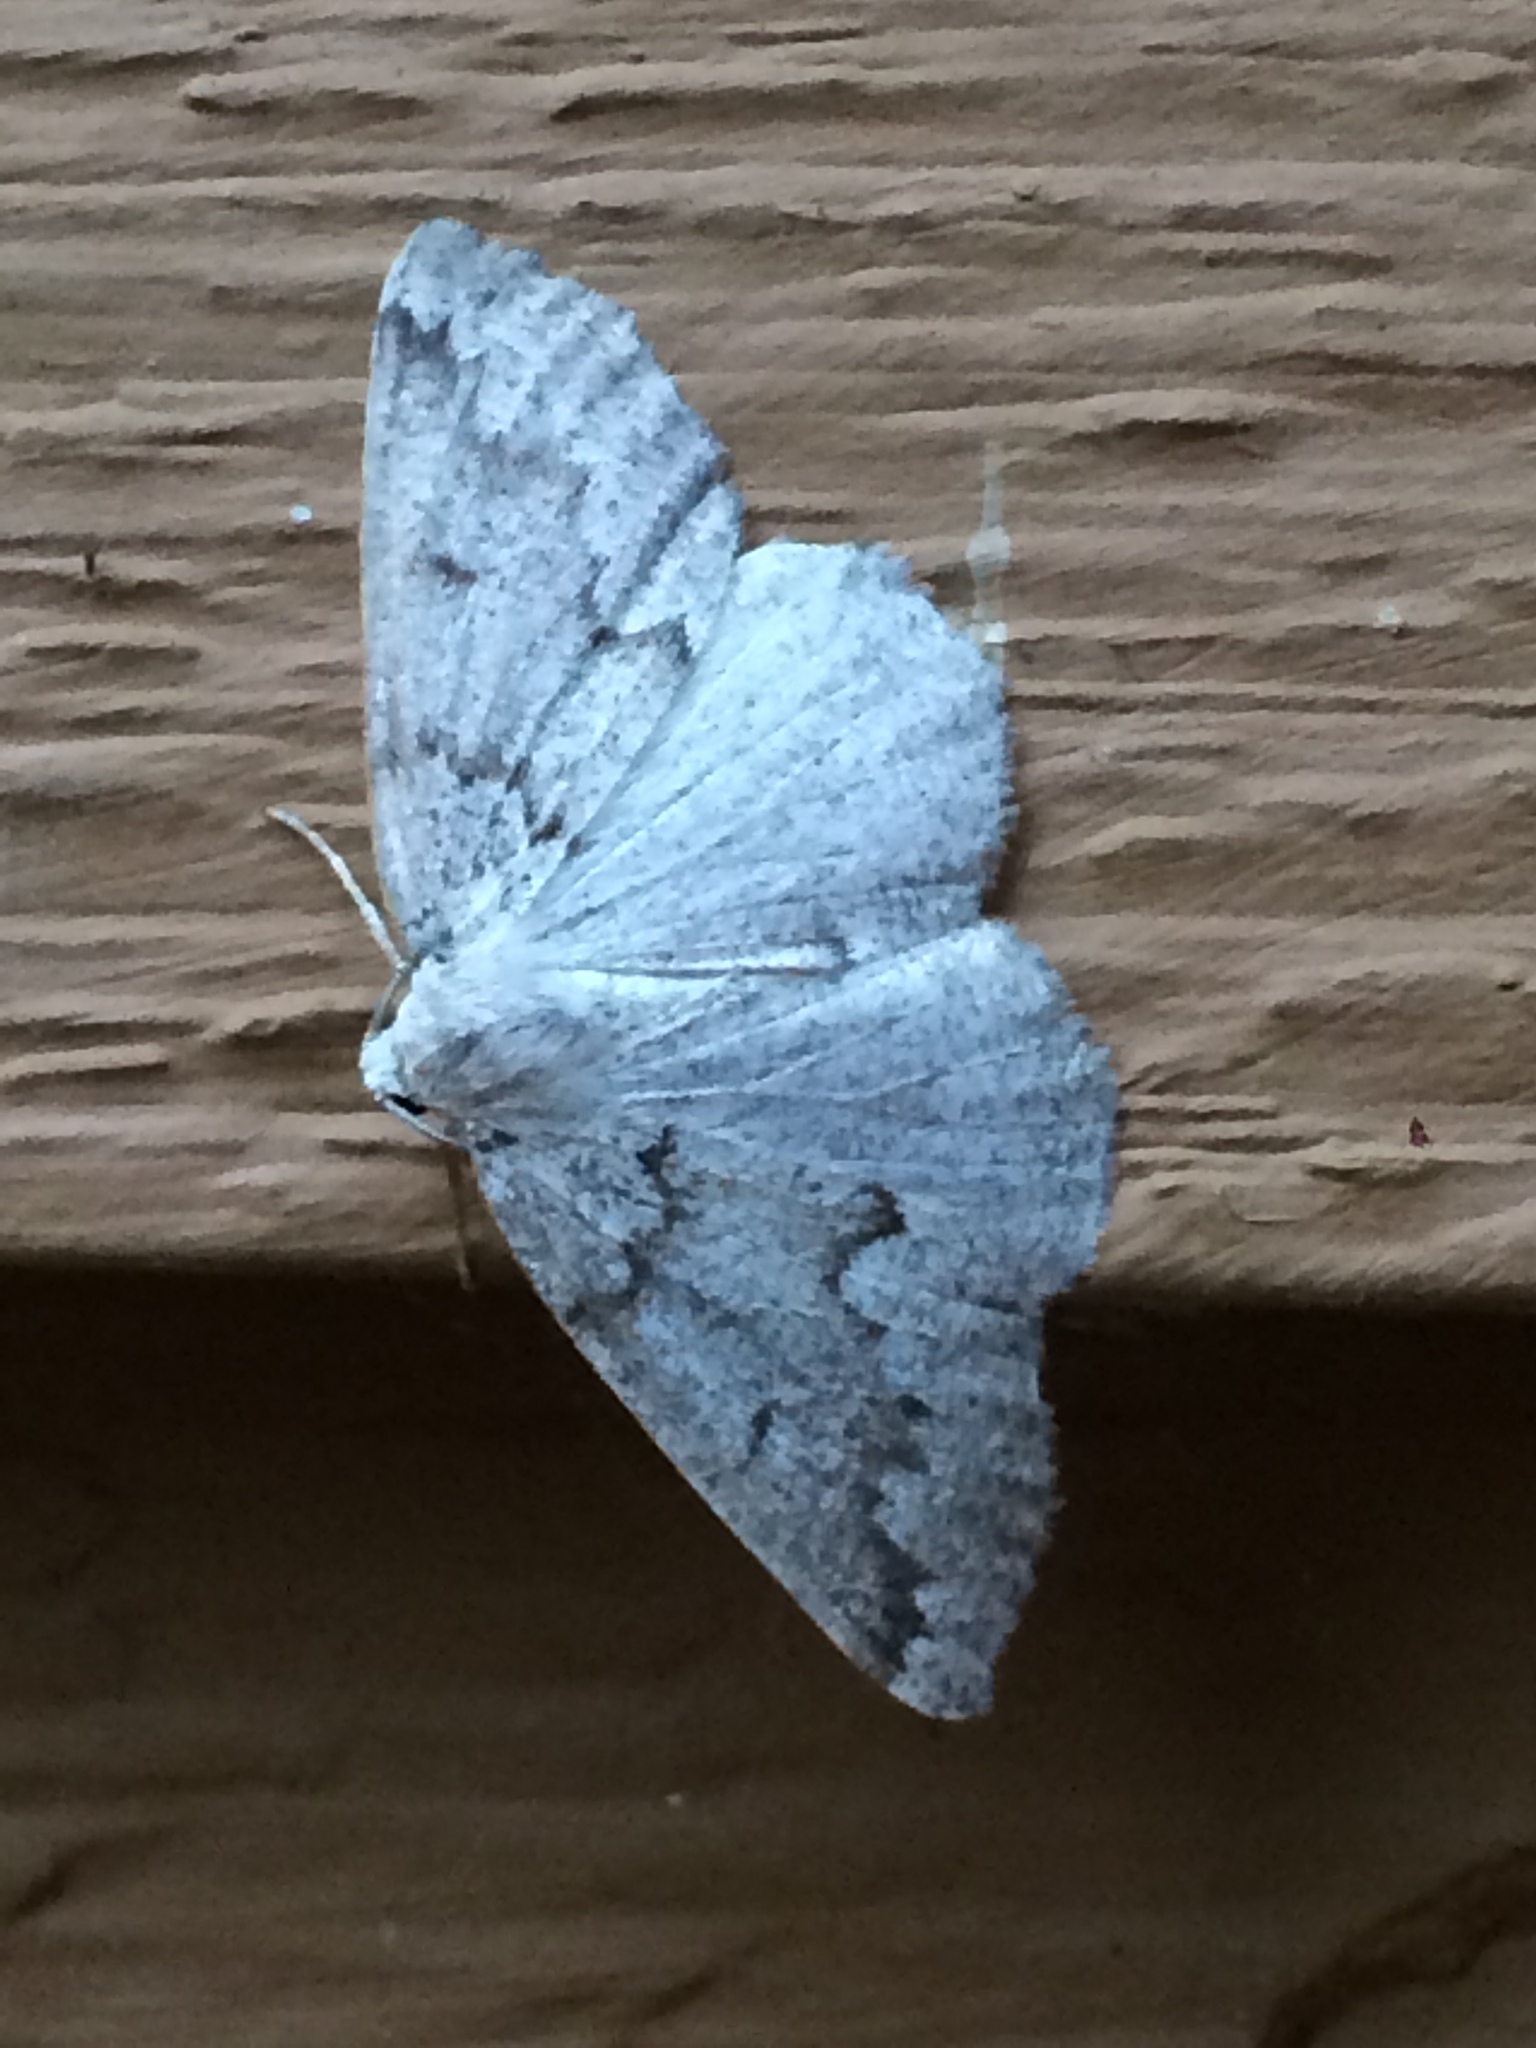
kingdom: Animalia
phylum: Arthropoda
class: Insecta
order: Lepidoptera
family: Geometridae
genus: Sabulodes
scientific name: Sabulodes
